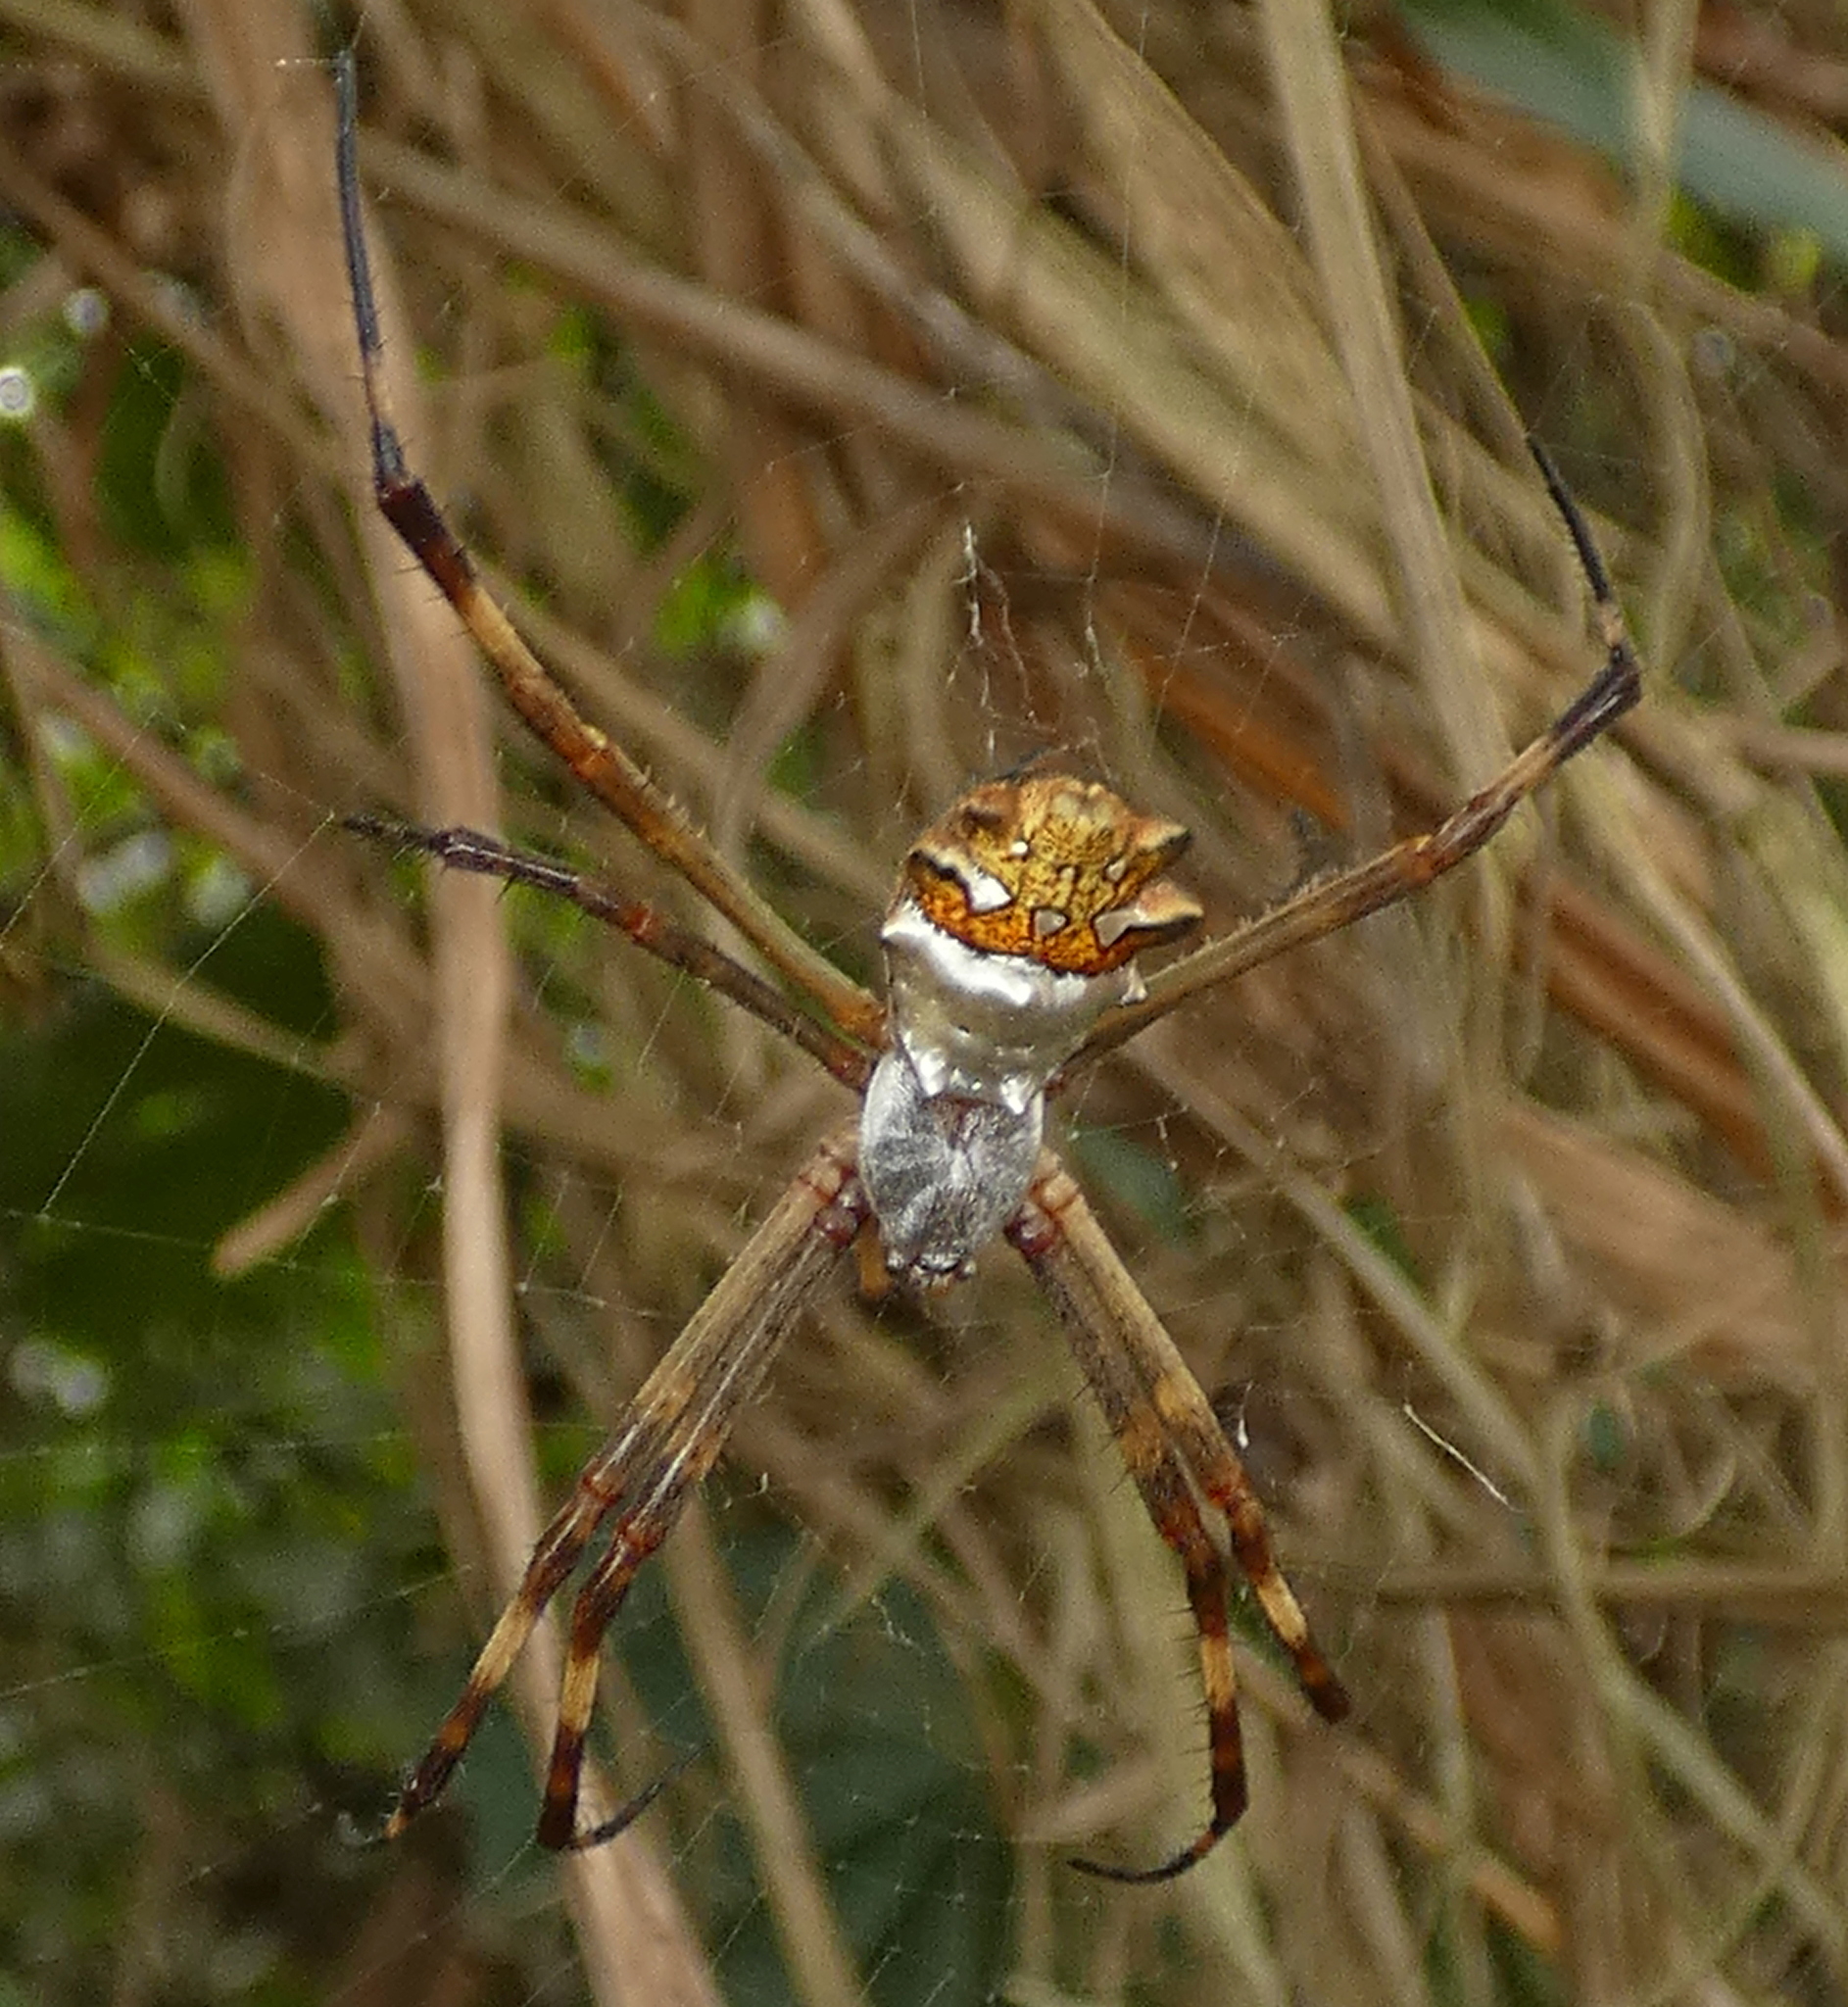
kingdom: Animalia
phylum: Arthropoda
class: Arachnida
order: Araneae
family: Araneidae
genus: Argiope
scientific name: Argiope argentata
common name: Orb weavers
